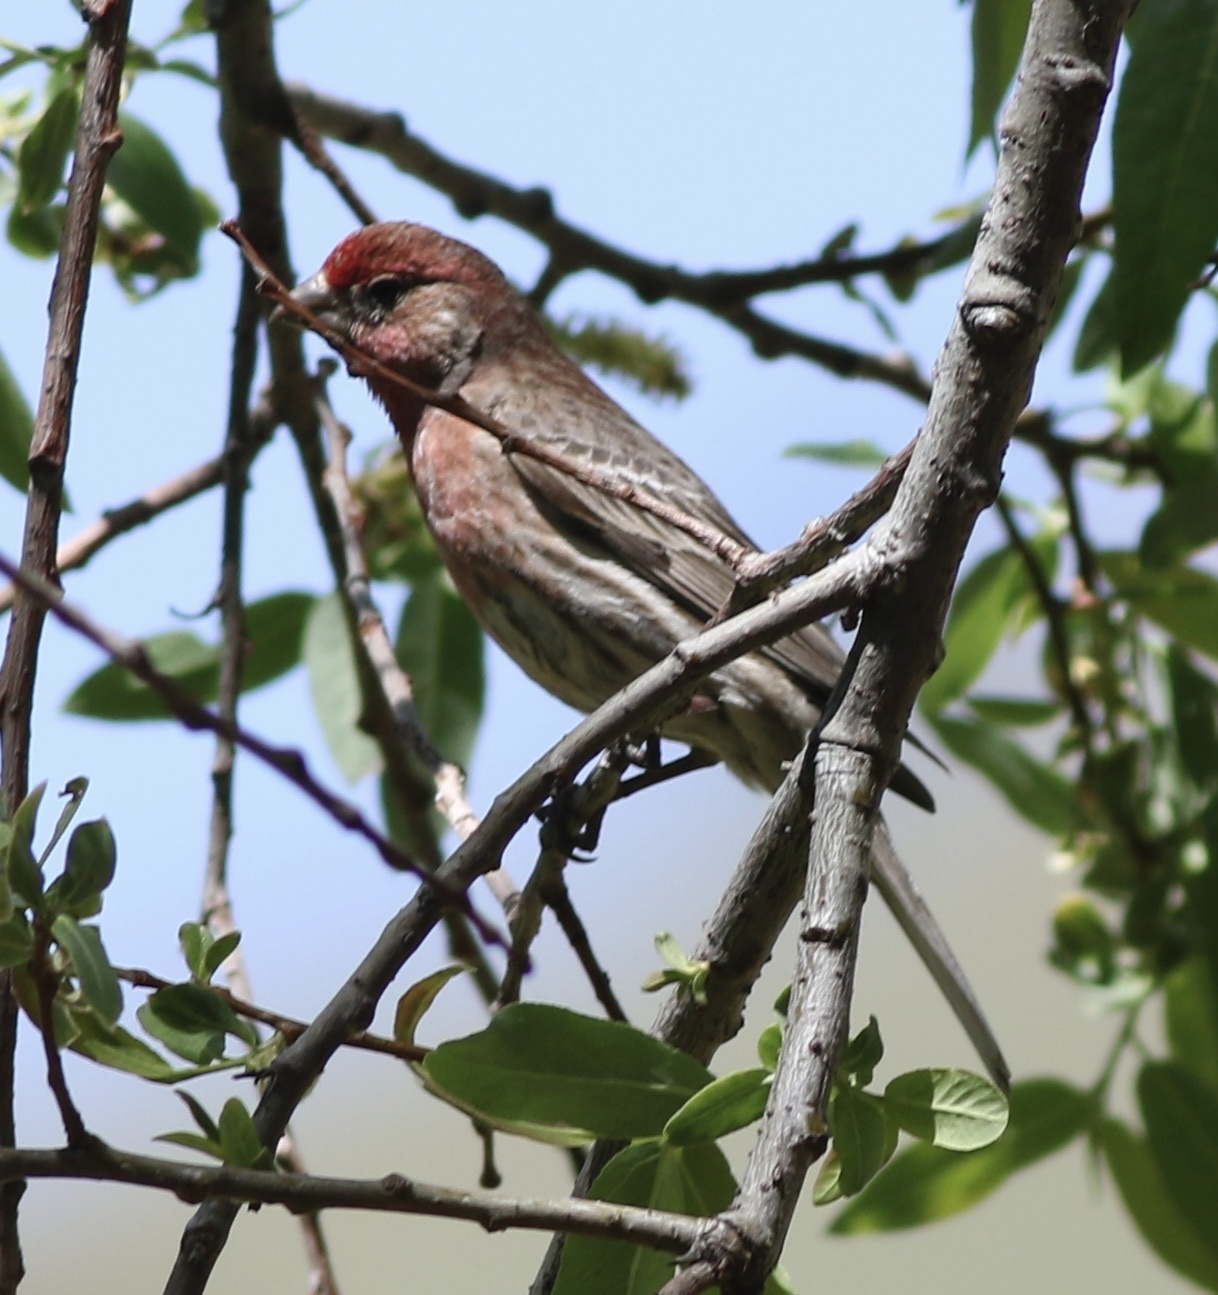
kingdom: Animalia
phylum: Chordata
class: Aves
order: Passeriformes
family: Fringillidae
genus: Haemorhous
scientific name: Haemorhous mexicanus
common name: House finch
